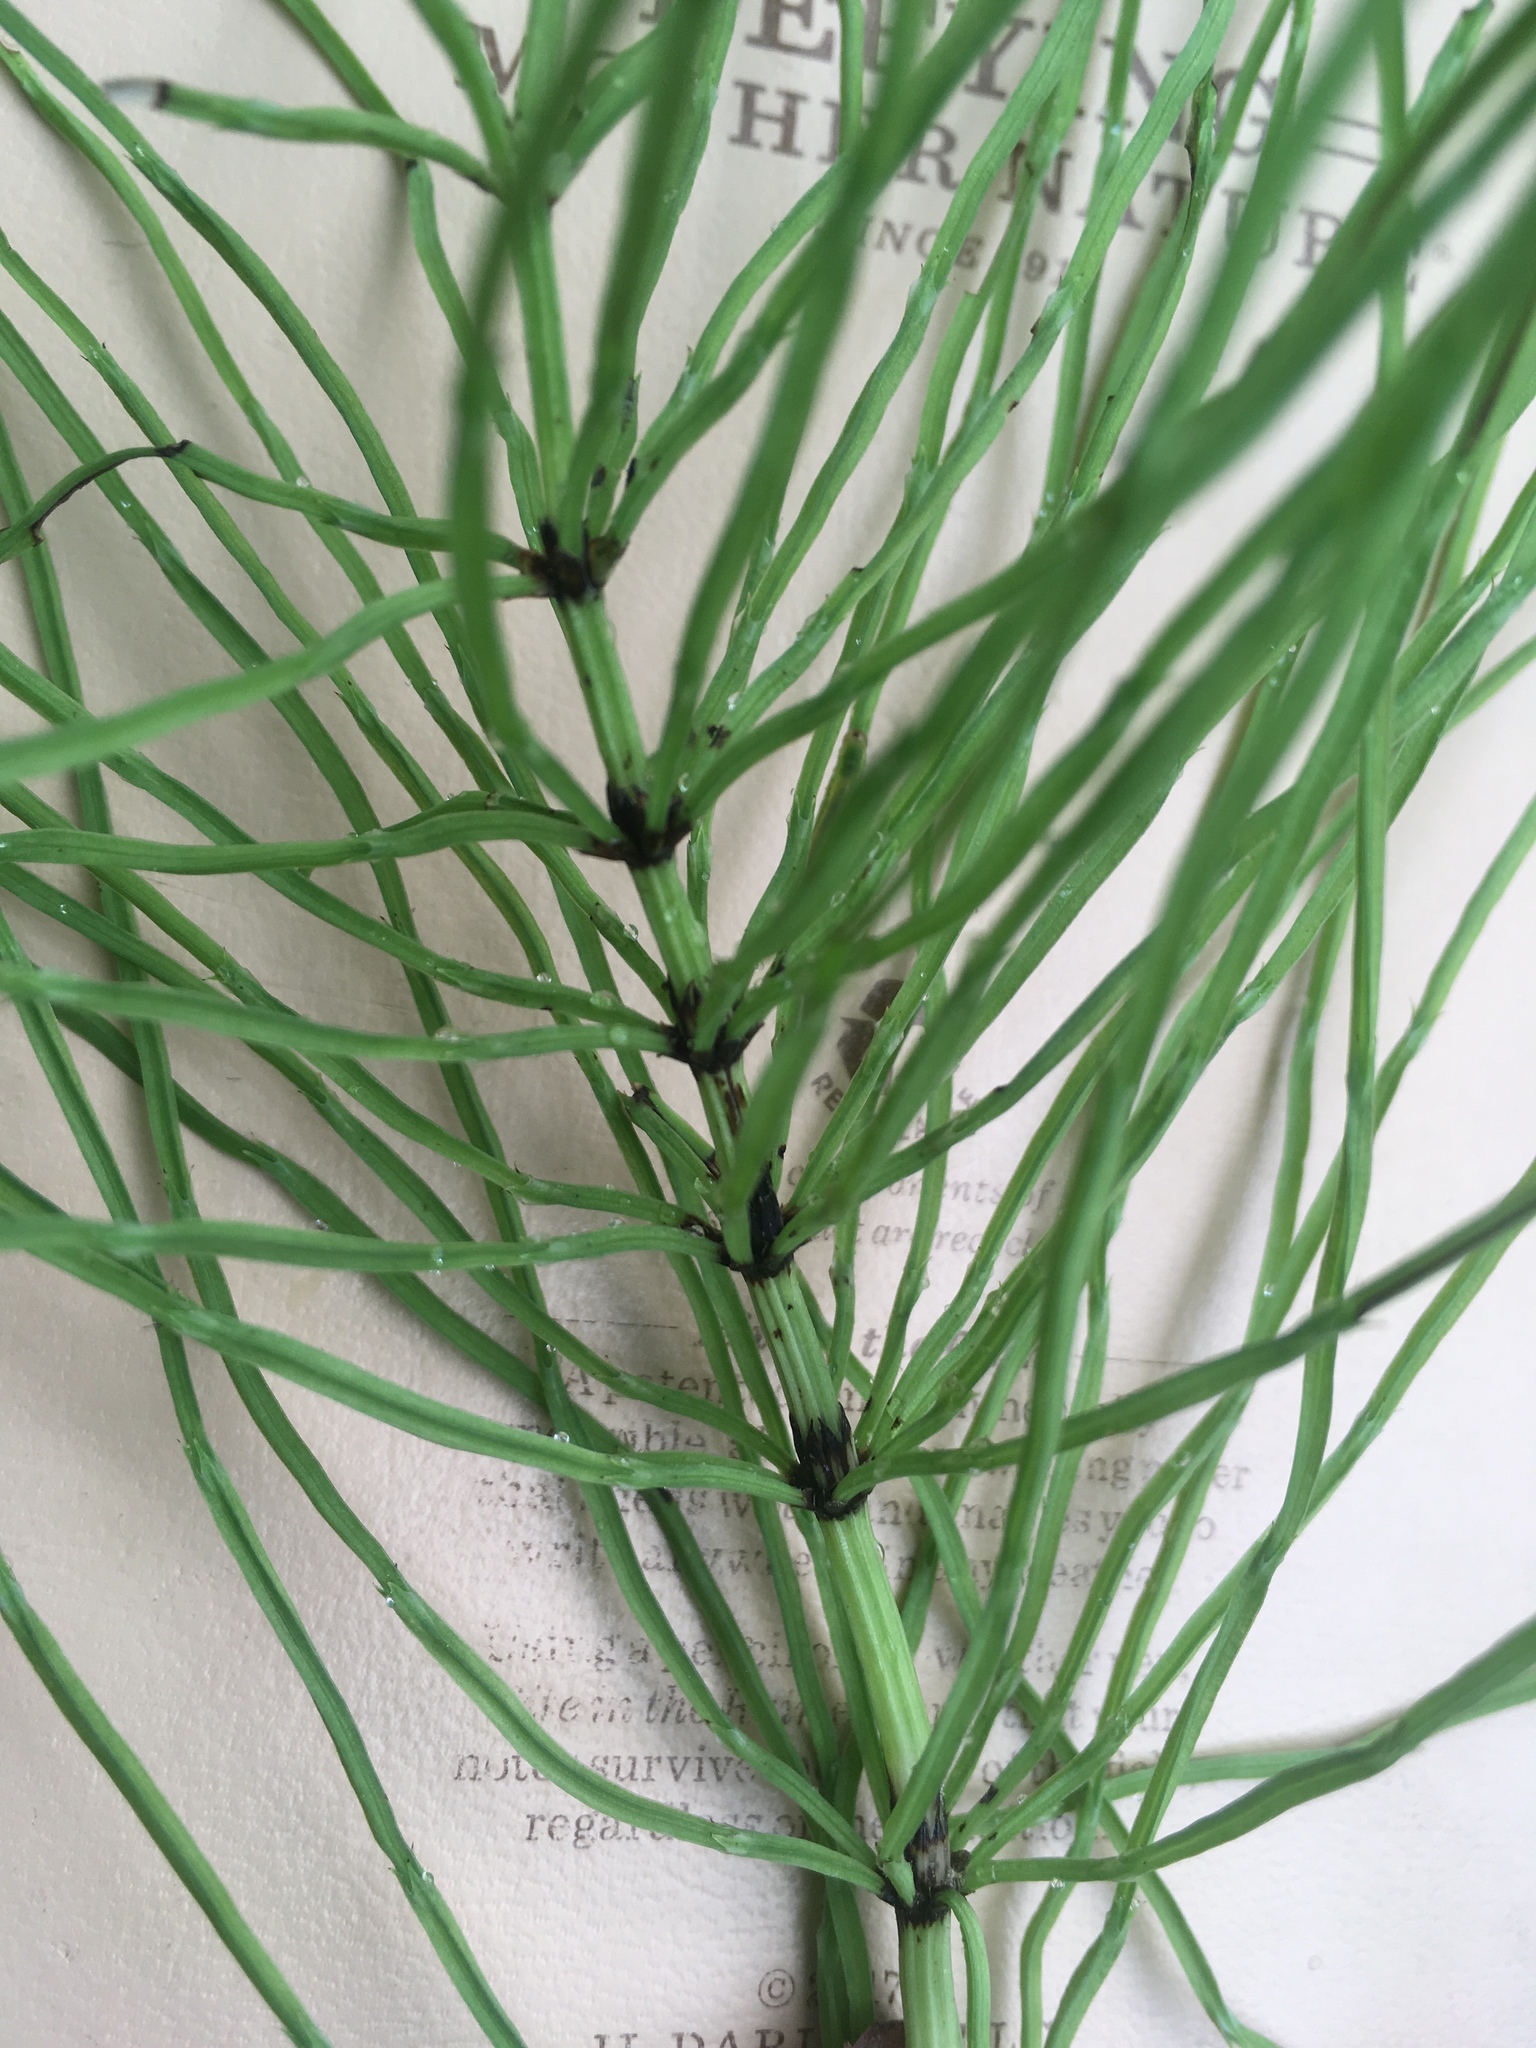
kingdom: Plantae
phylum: Tracheophyta
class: Polypodiopsida
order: Equisetales
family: Equisetaceae
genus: Equisetum
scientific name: Equisetum arvense
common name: Field horsetail
